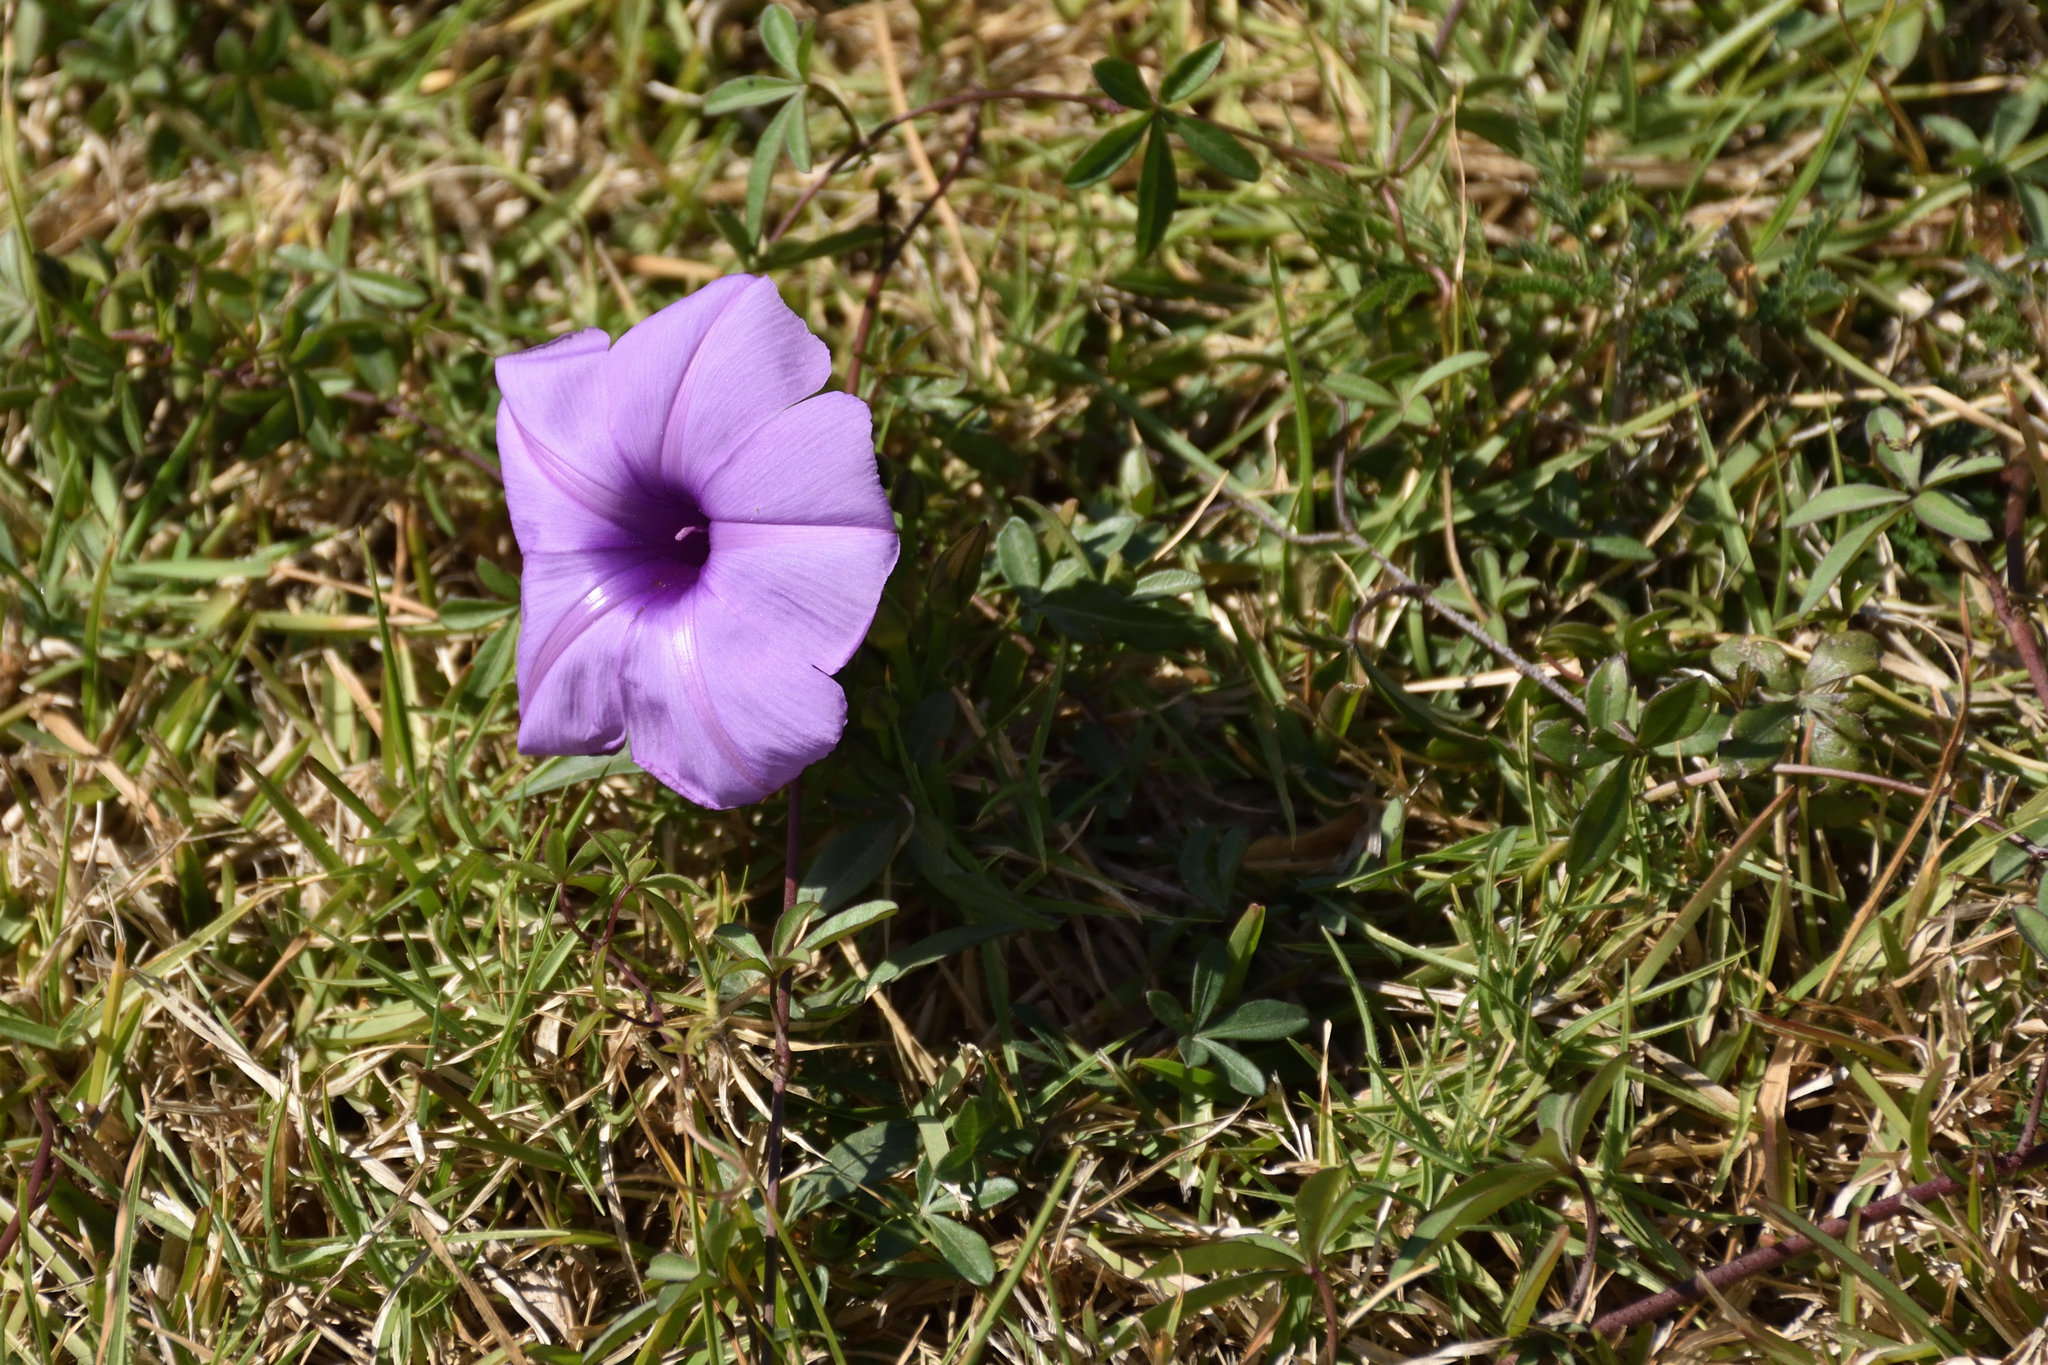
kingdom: Plantae
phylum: Tracheophyta
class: Magnoliopsida
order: Solanales
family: Convolvulaceae
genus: Ipomoea
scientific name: Ipomoea cairica
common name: Mile a minute vine
